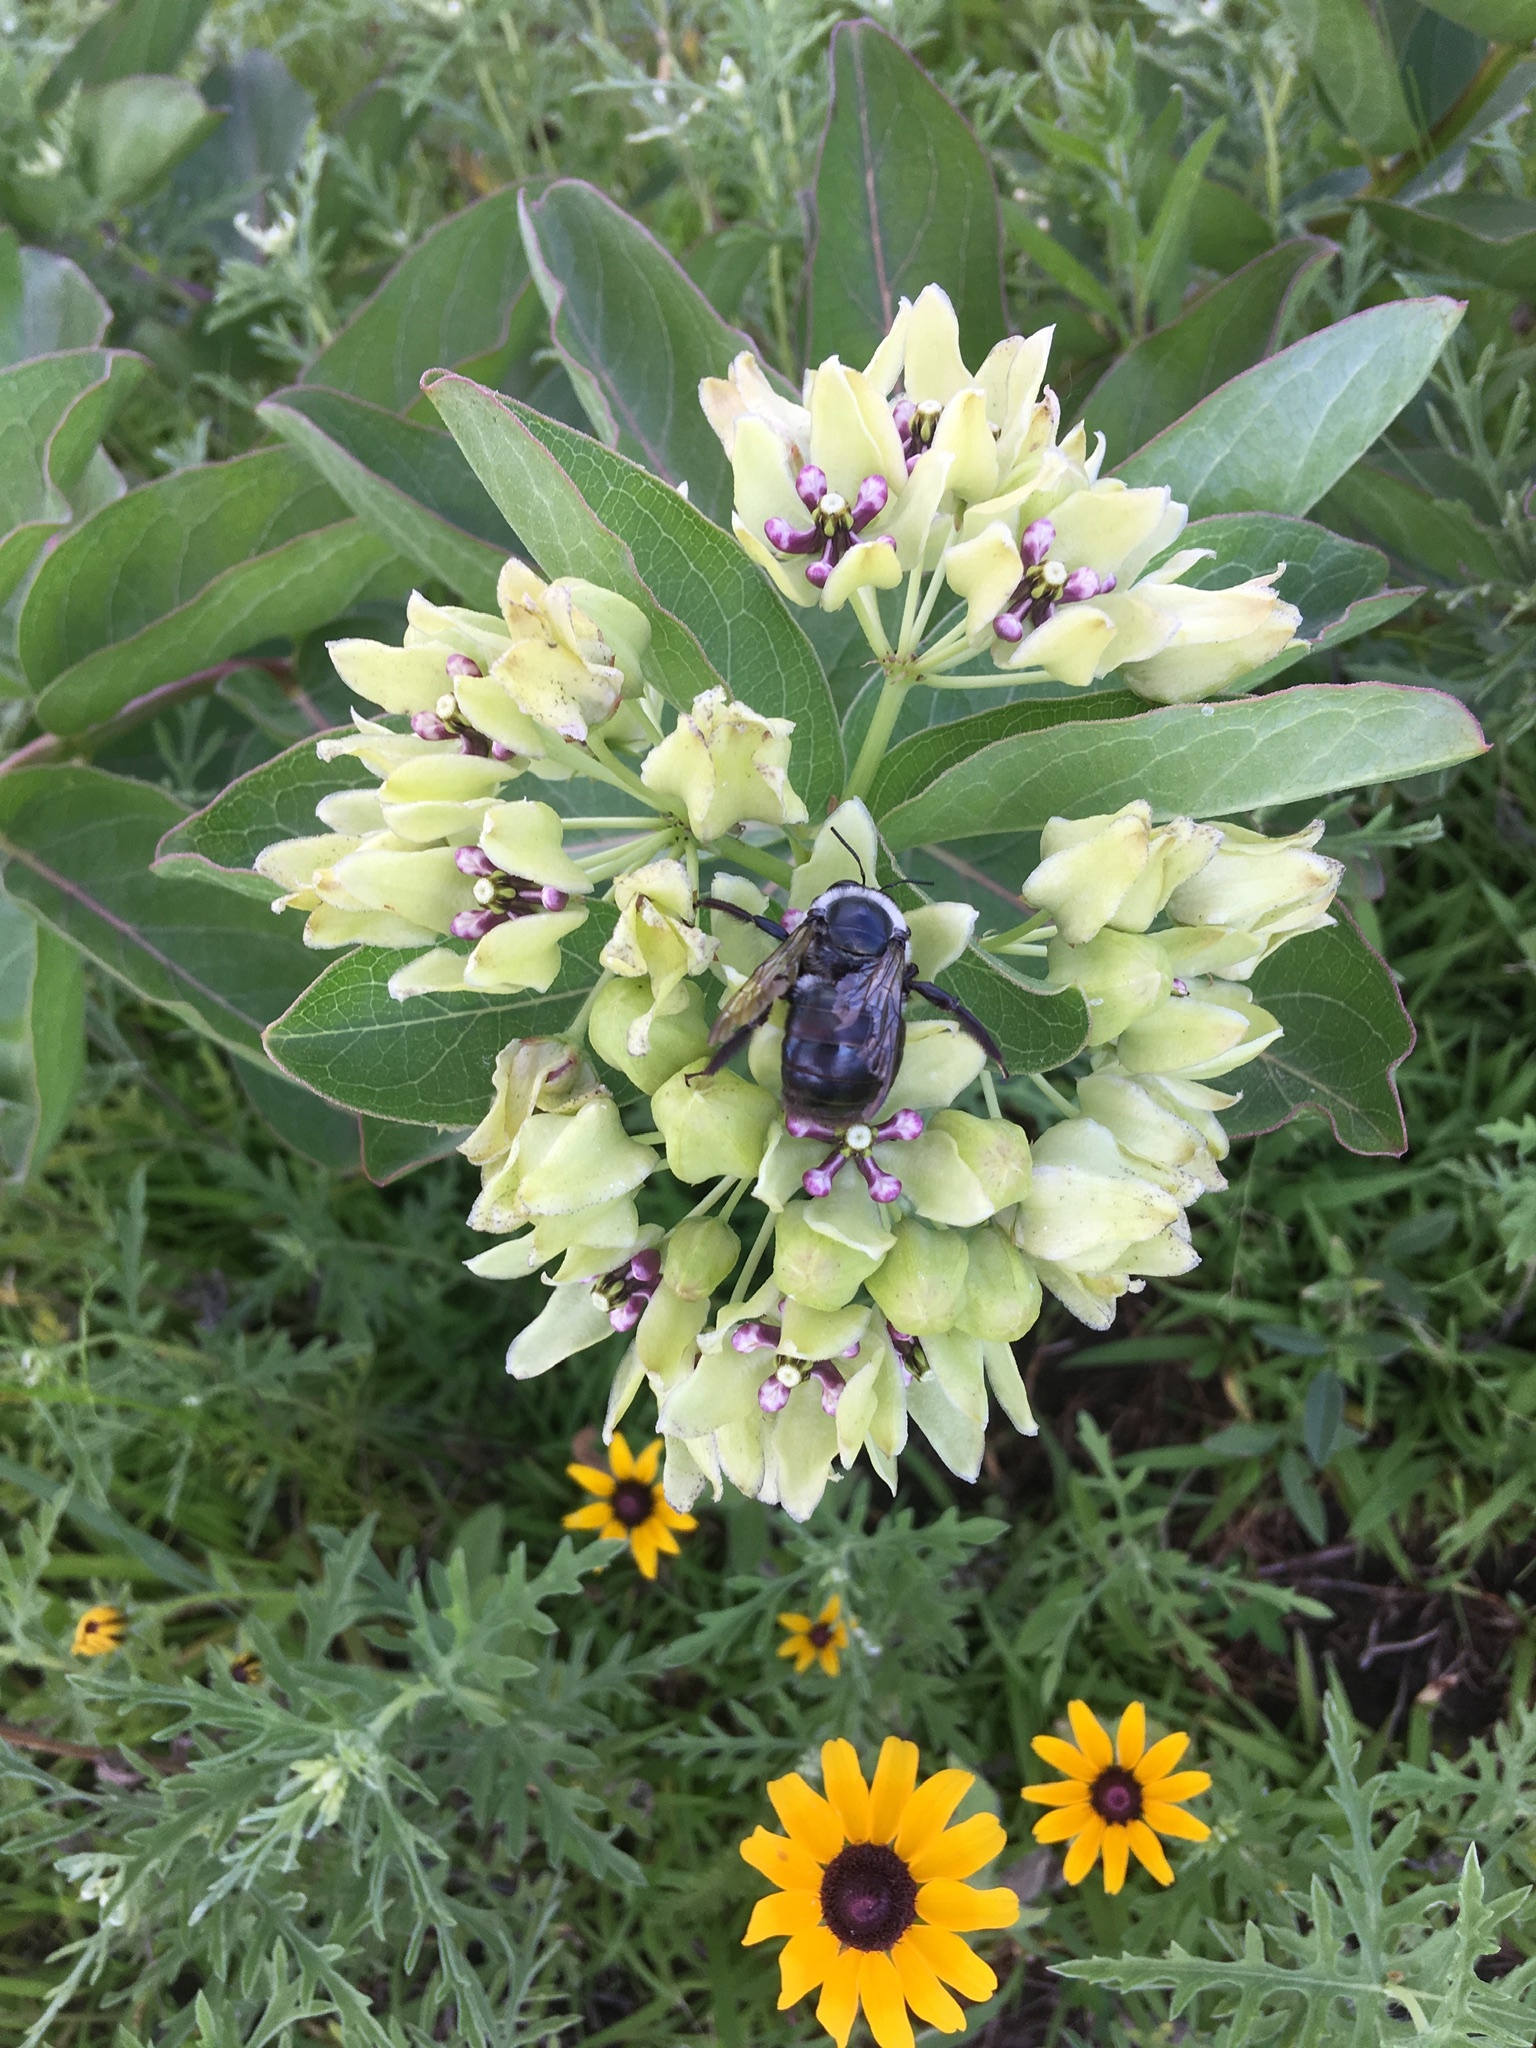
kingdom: Animalia
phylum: Arthropoda
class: Insecta
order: Hymenoptera
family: Apidae
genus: Xylocopa
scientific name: Xylocopa virginica
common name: Carpenter bee
